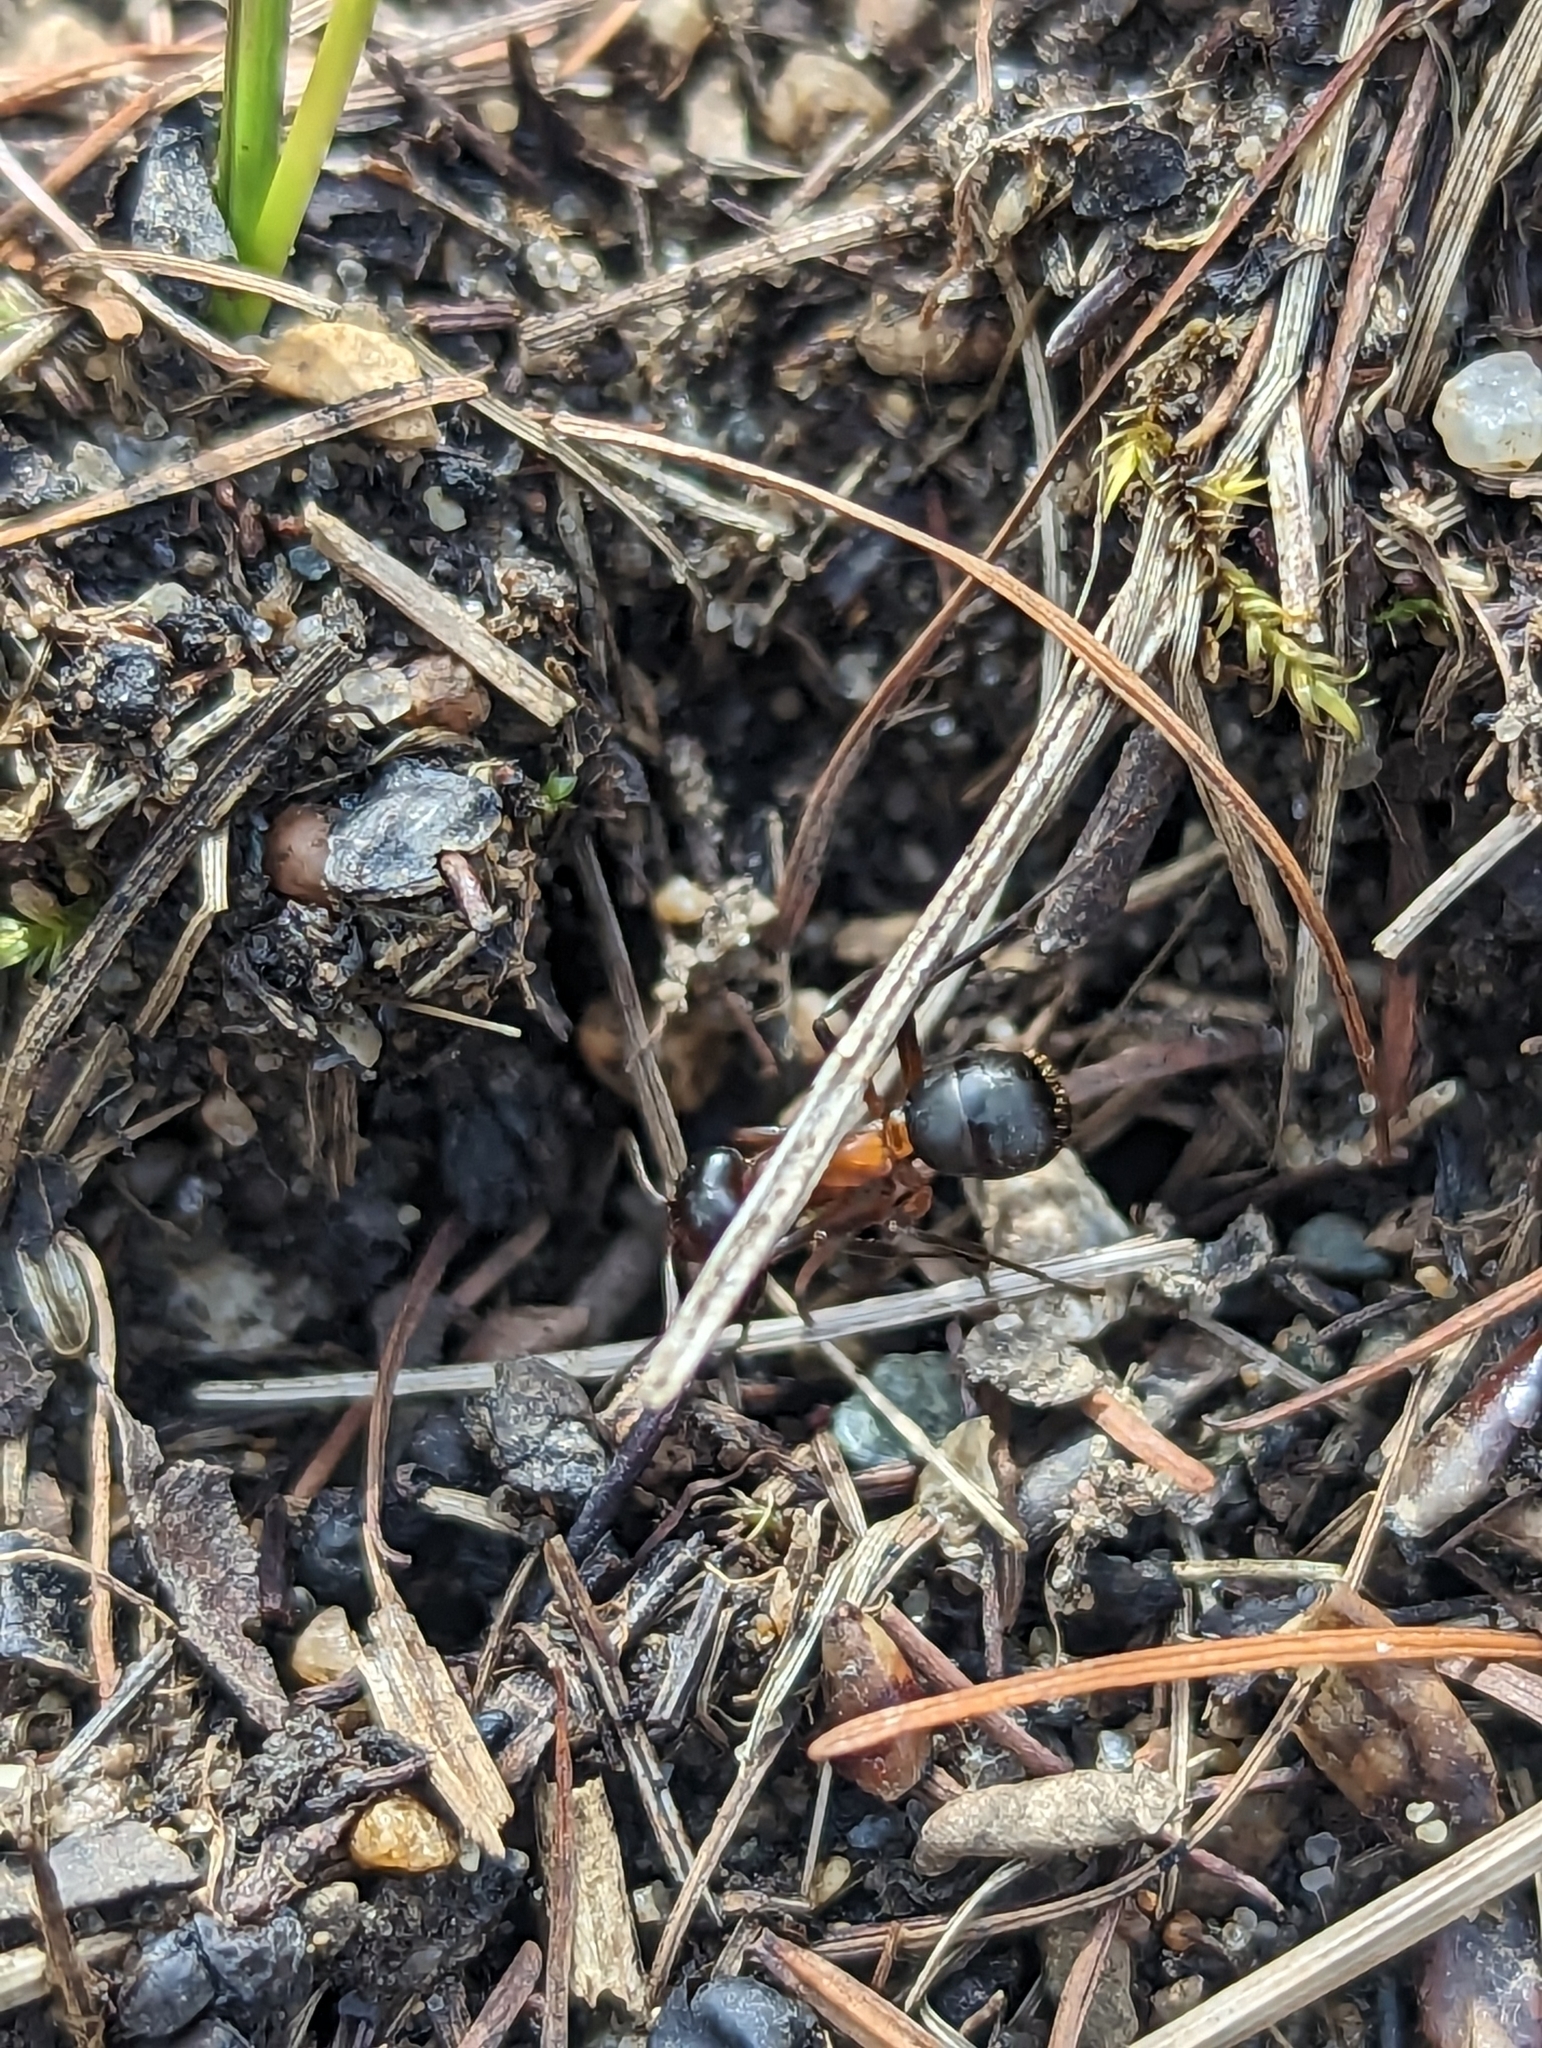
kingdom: Animalia
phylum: Arthropoda
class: Insecta
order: Hymenoptera
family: Formicidae
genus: Formica
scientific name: Formica ulkei
